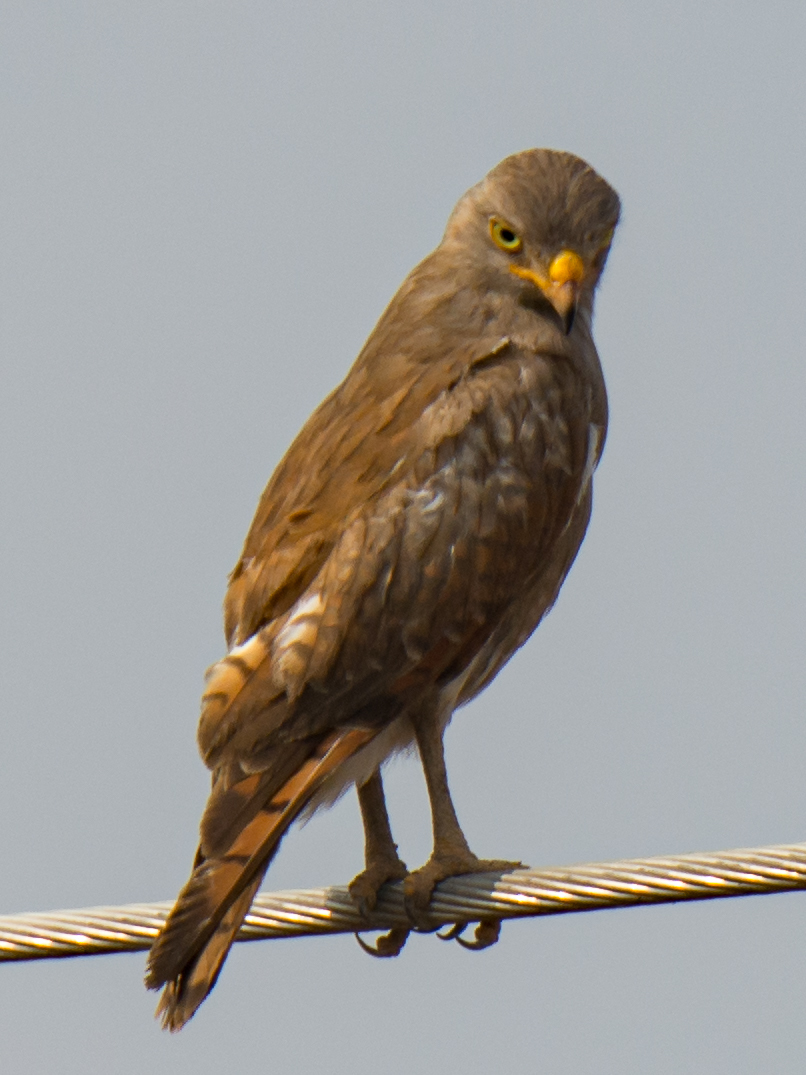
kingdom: Animalia
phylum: Chordata
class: Aves
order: Accipitriformes
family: Accipitridae
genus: Butastur
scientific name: Butastur liventer
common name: Rufous-winged buzzard
